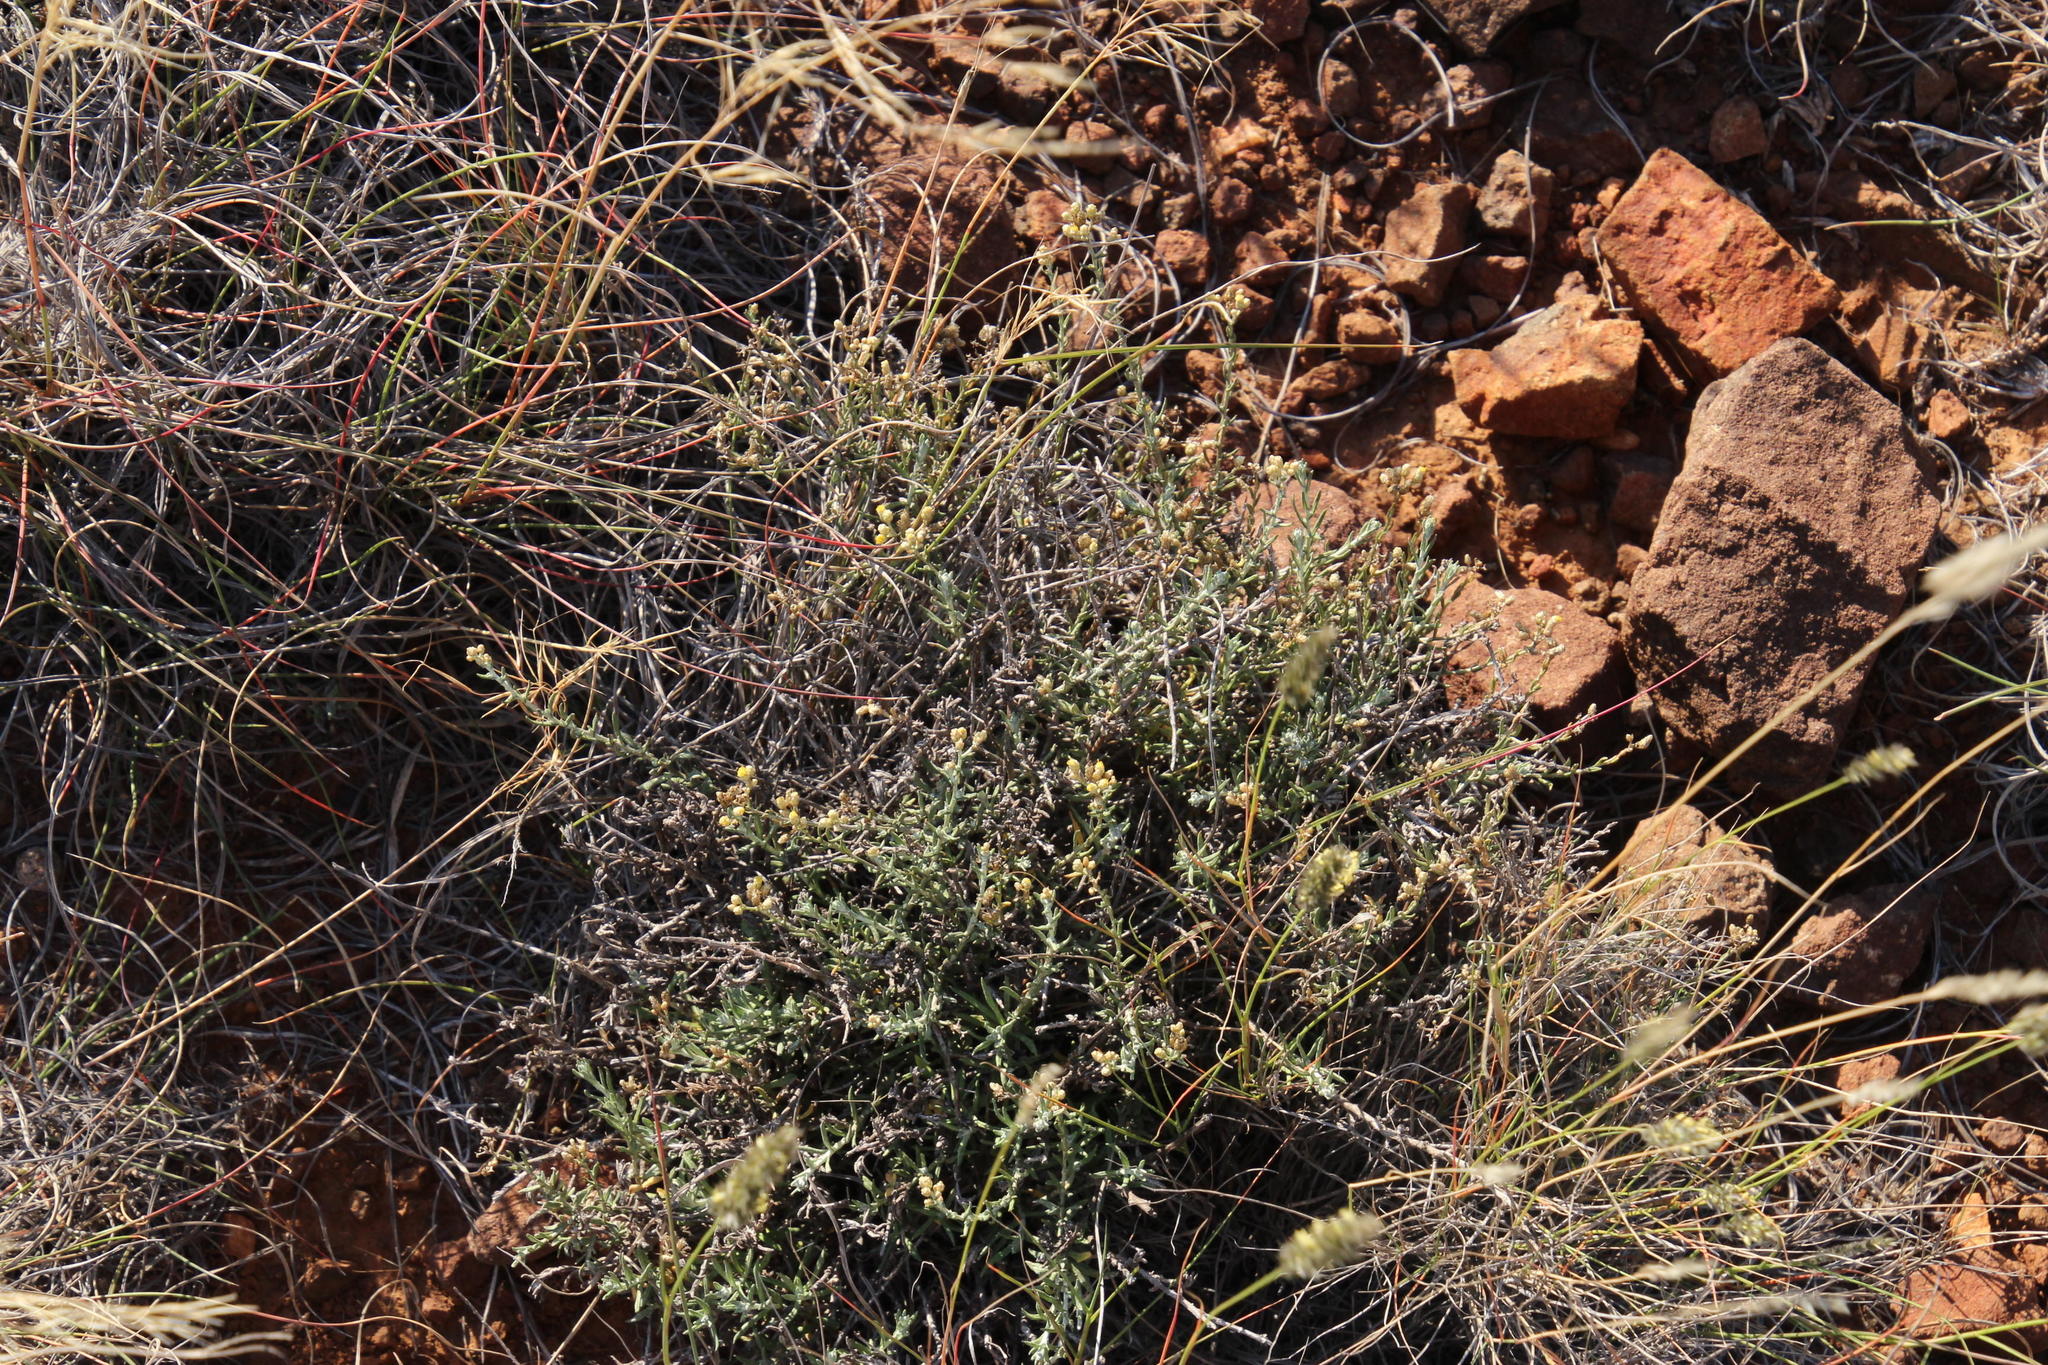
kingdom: Plantae
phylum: Tracheophyta
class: Magnoliopsida
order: Asterales
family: Asteraceae
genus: Helichrysum
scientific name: Helichrysum rosum
